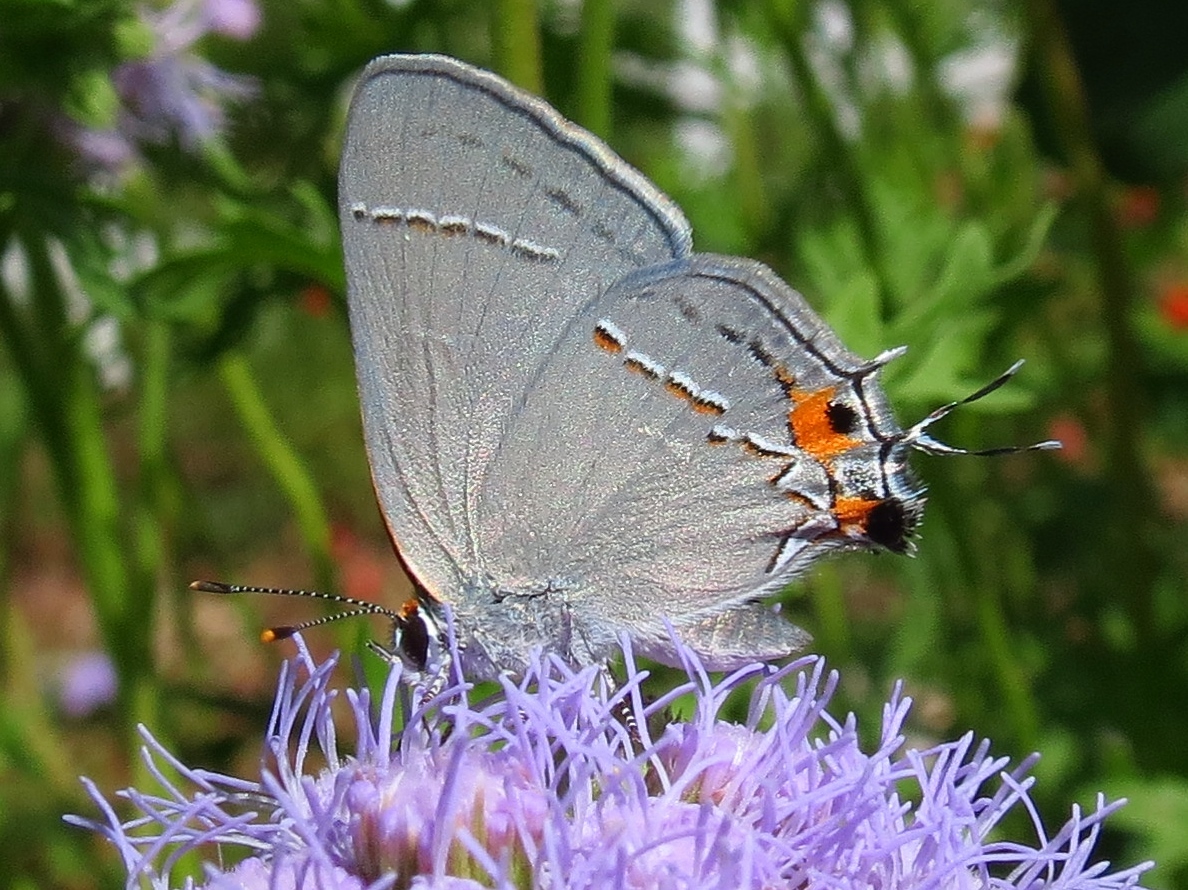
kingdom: Animalia
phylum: Arthropoda
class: Insecta
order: Lepidoptera
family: Lycaenidae
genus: Strymon
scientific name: Strymon melinus
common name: Gray hairstreak
